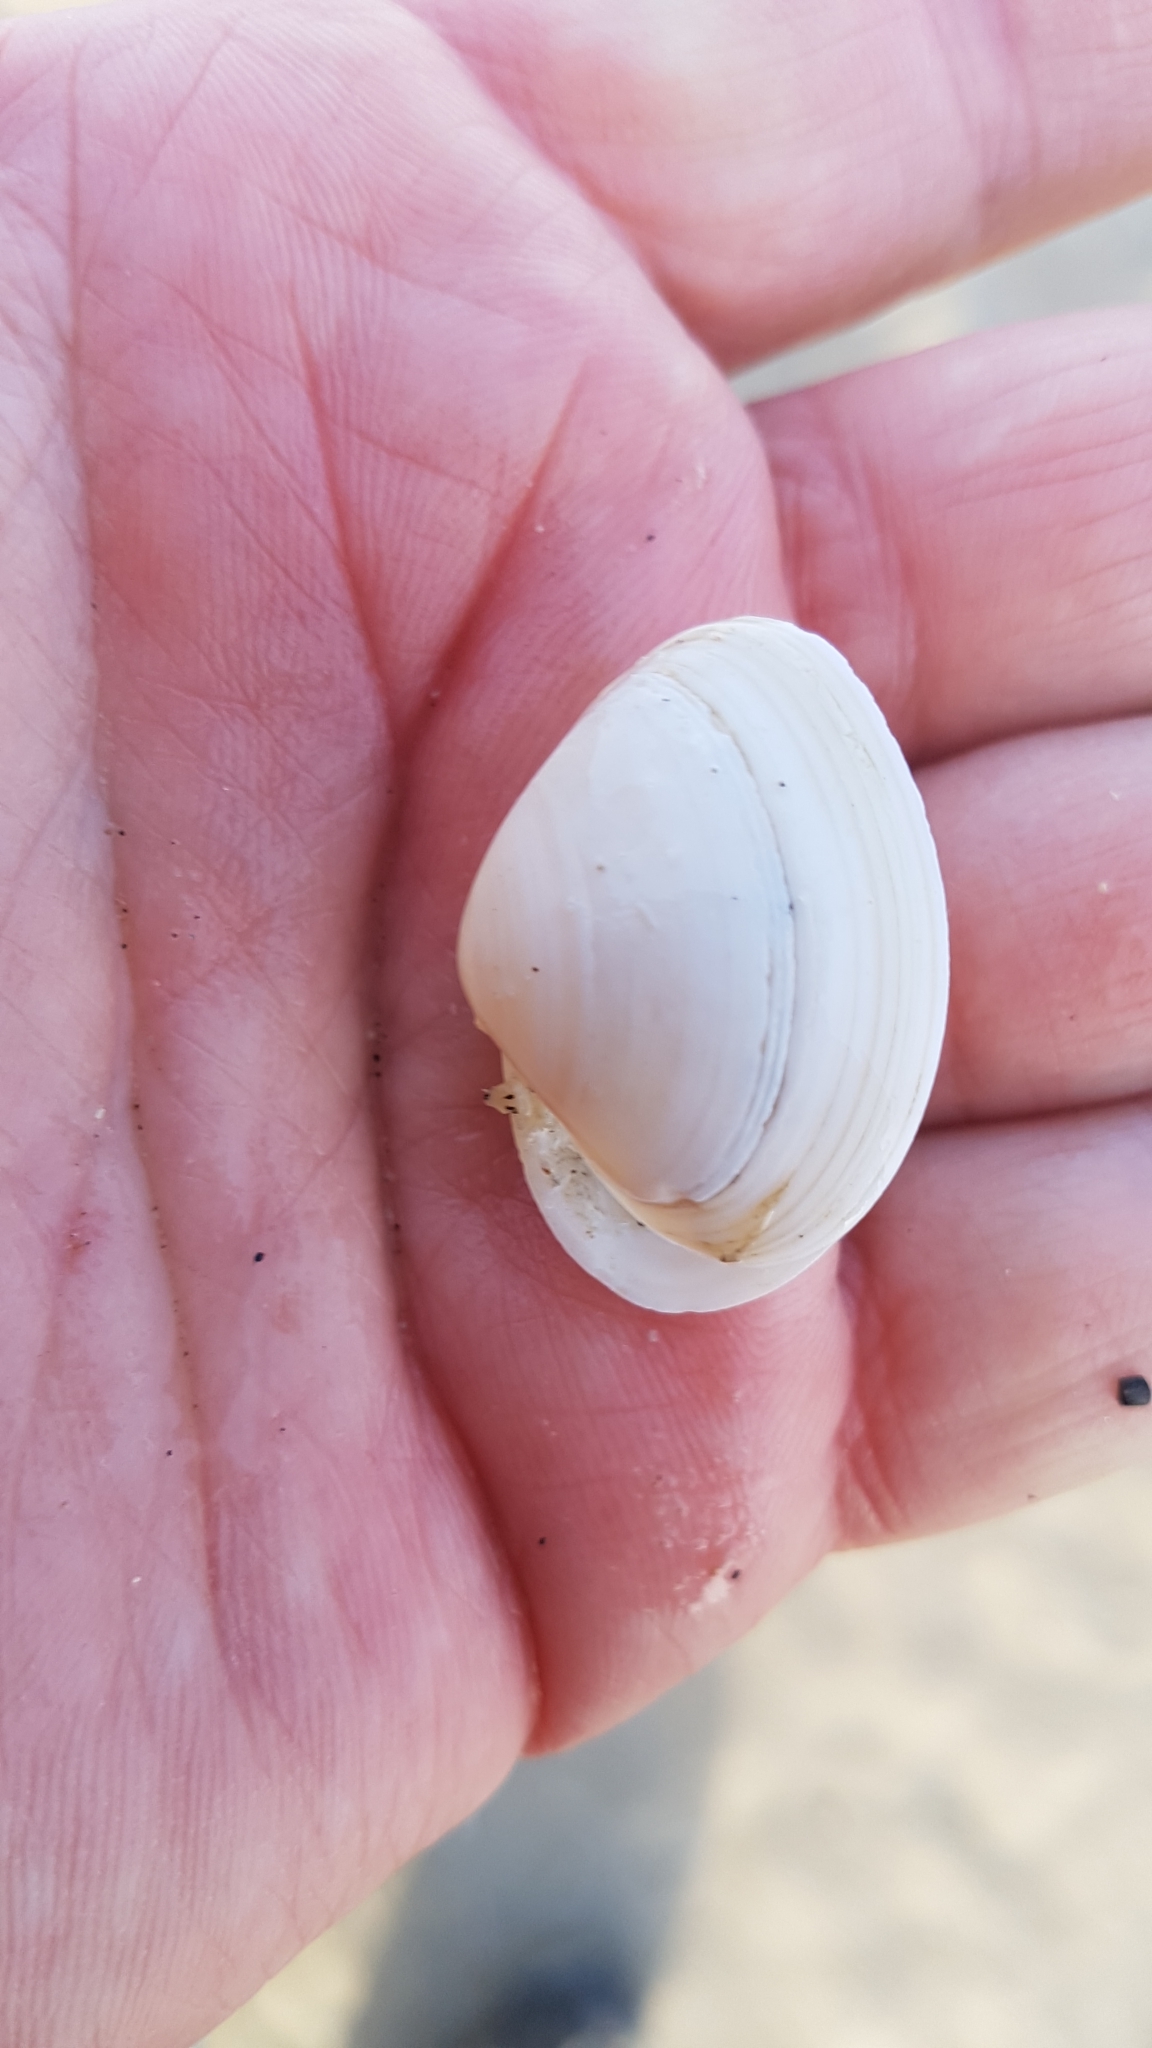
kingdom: Animalia
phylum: Mollusca
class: Bivalvia
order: Venerida
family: Mactridae
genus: Spisula
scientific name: Spisula solida
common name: Thick trough shell
